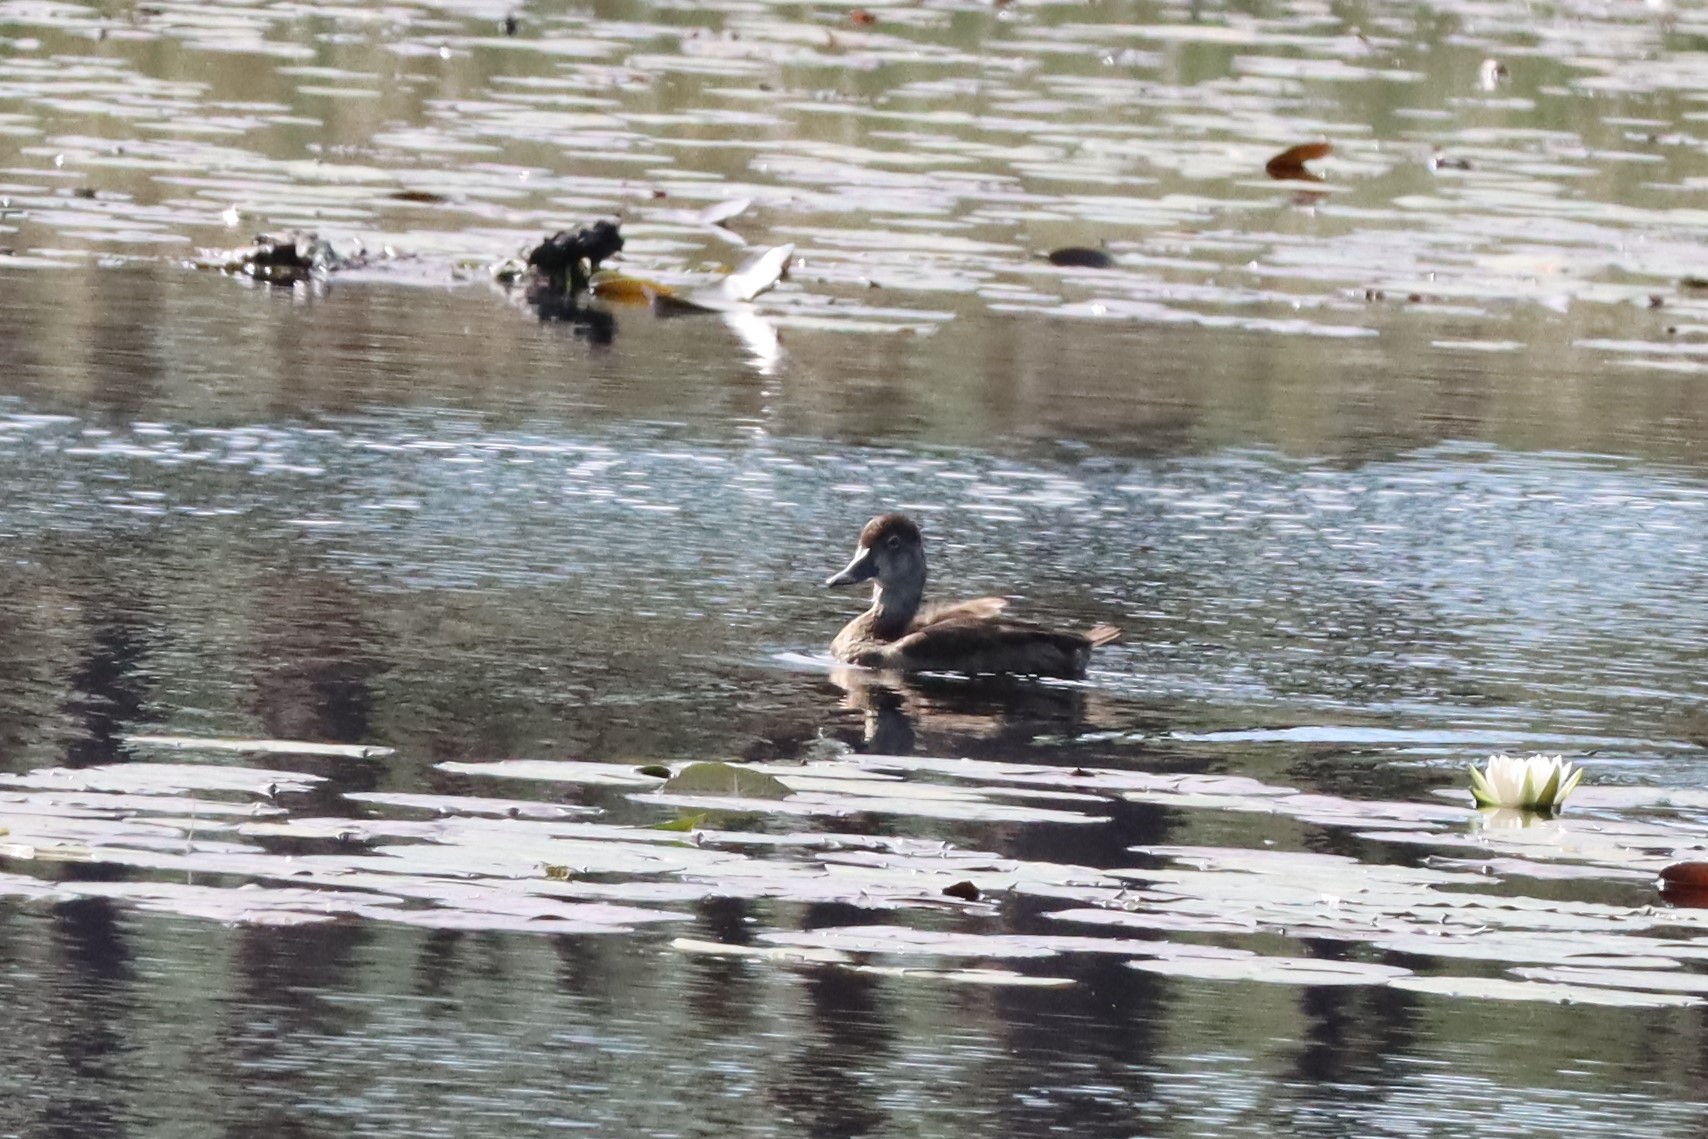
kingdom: Animalia
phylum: Chordata
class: Aves
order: Anseriformes
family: Anatidae
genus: Aythya
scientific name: Aythya americana
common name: Redhead
